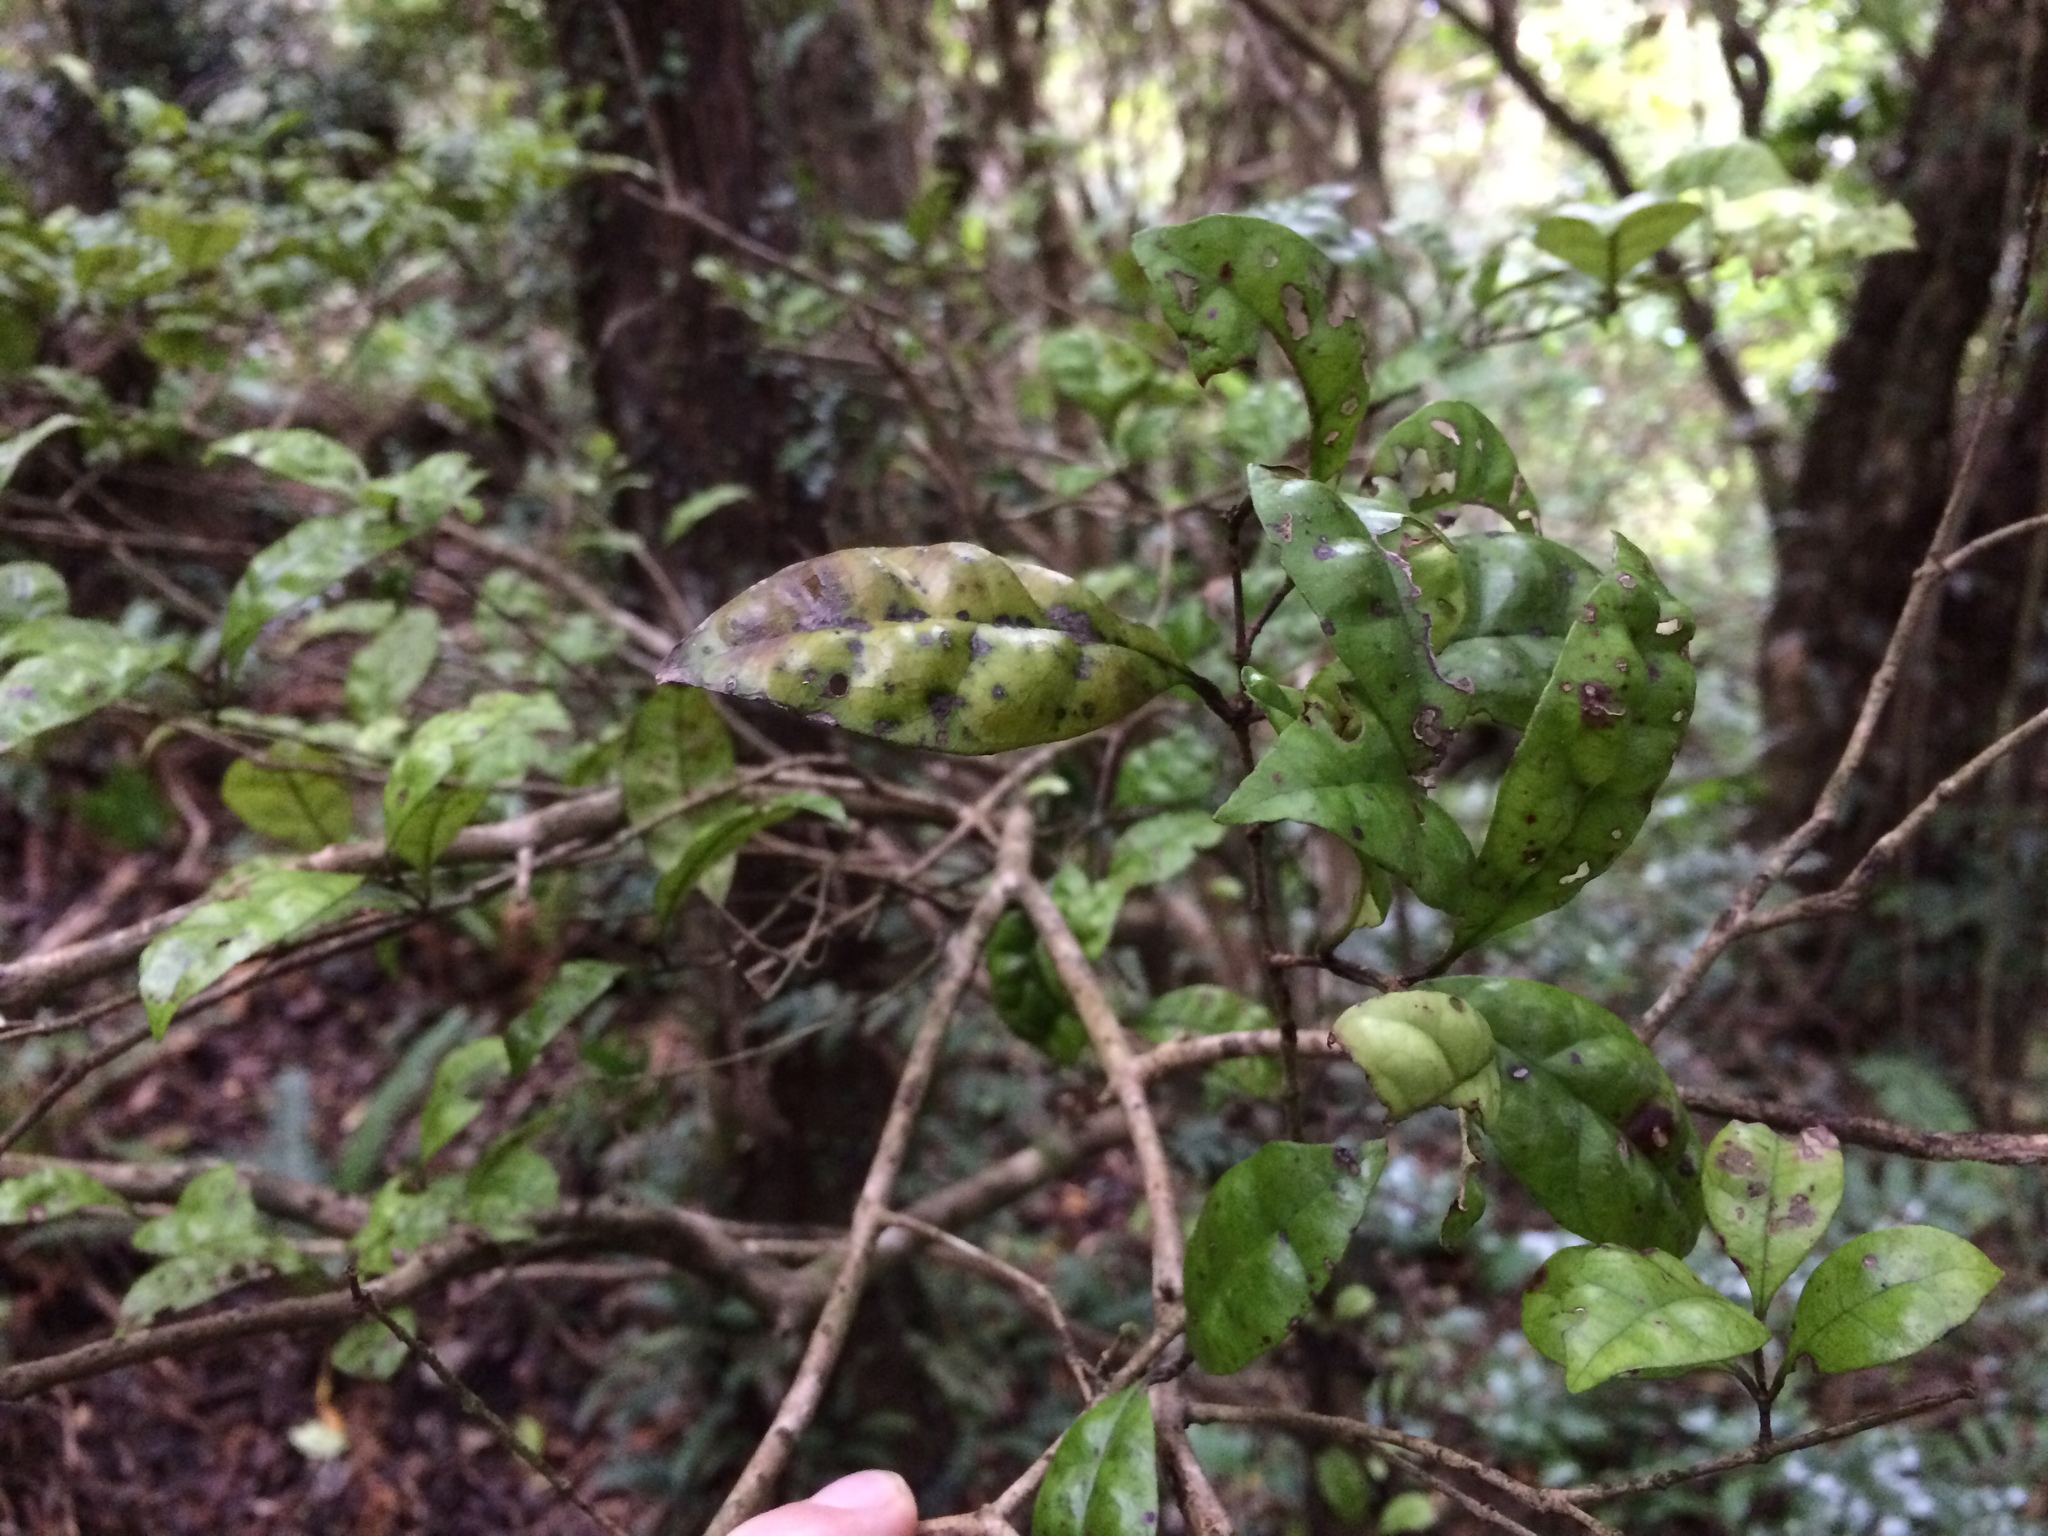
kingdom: Plantae
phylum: Tracheophyta
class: Magnoliopsida
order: Myrtales
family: Myrtaceae
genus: Lophomyrtus
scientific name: Lophomyrtus bullata
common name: Rama rama
